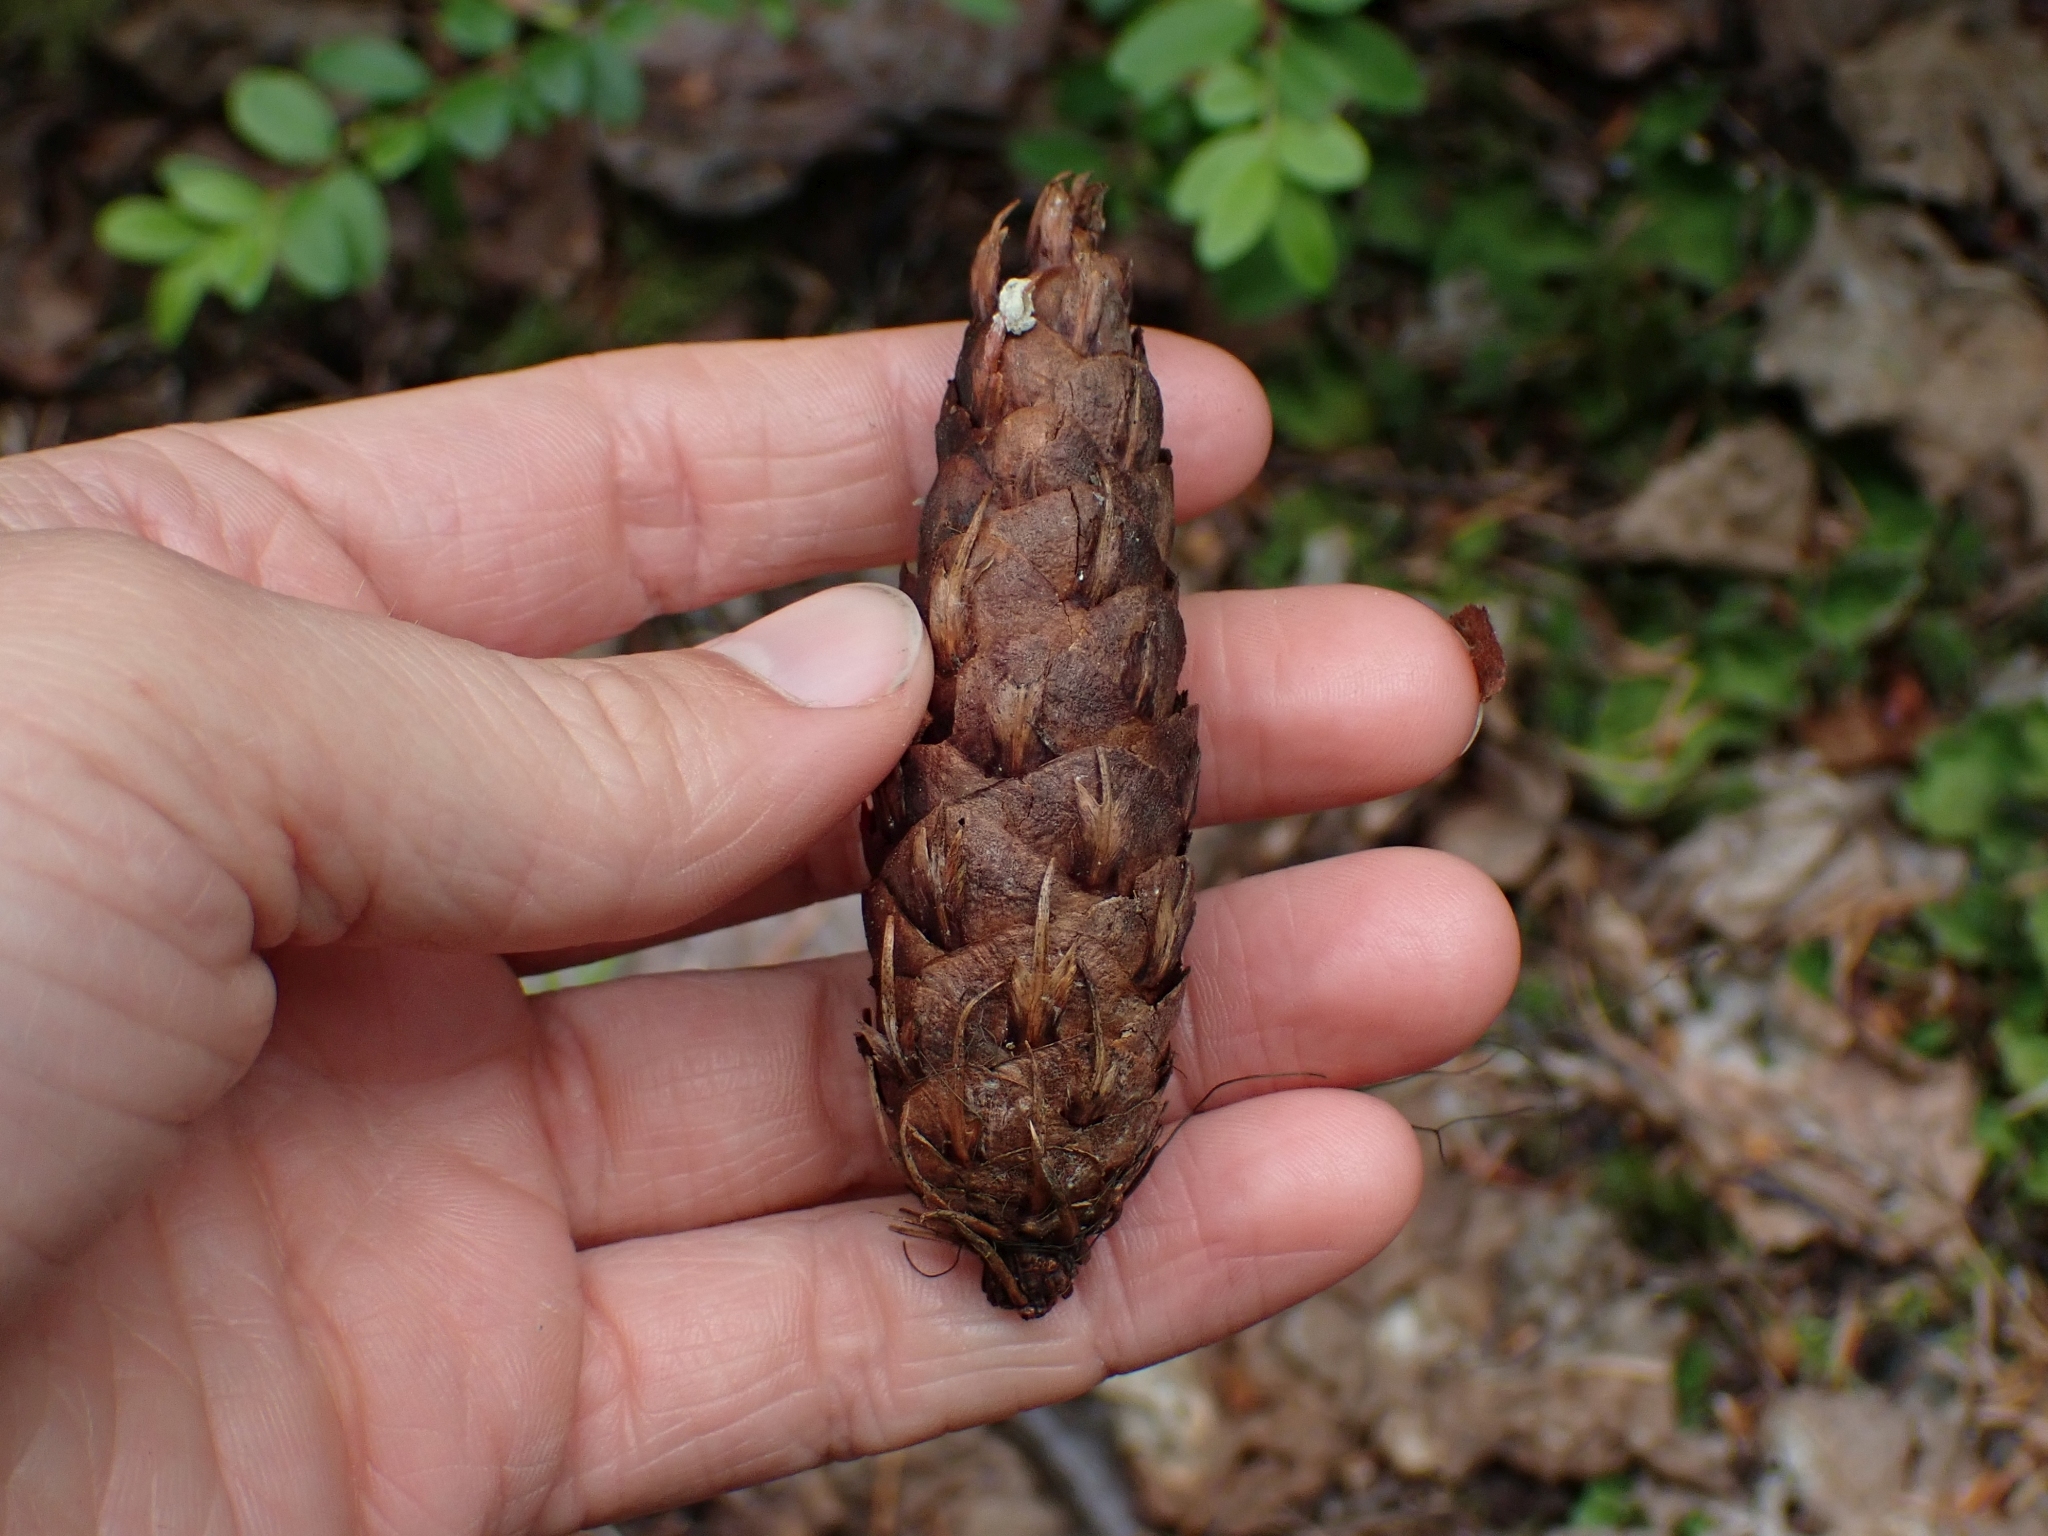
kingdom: Plantae
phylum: Tracheophyta
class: Pinopsida
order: Pinales
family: Pinaceae
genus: Pseudotsuga
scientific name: Pseudotsuga menziesii
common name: Douglas fir
